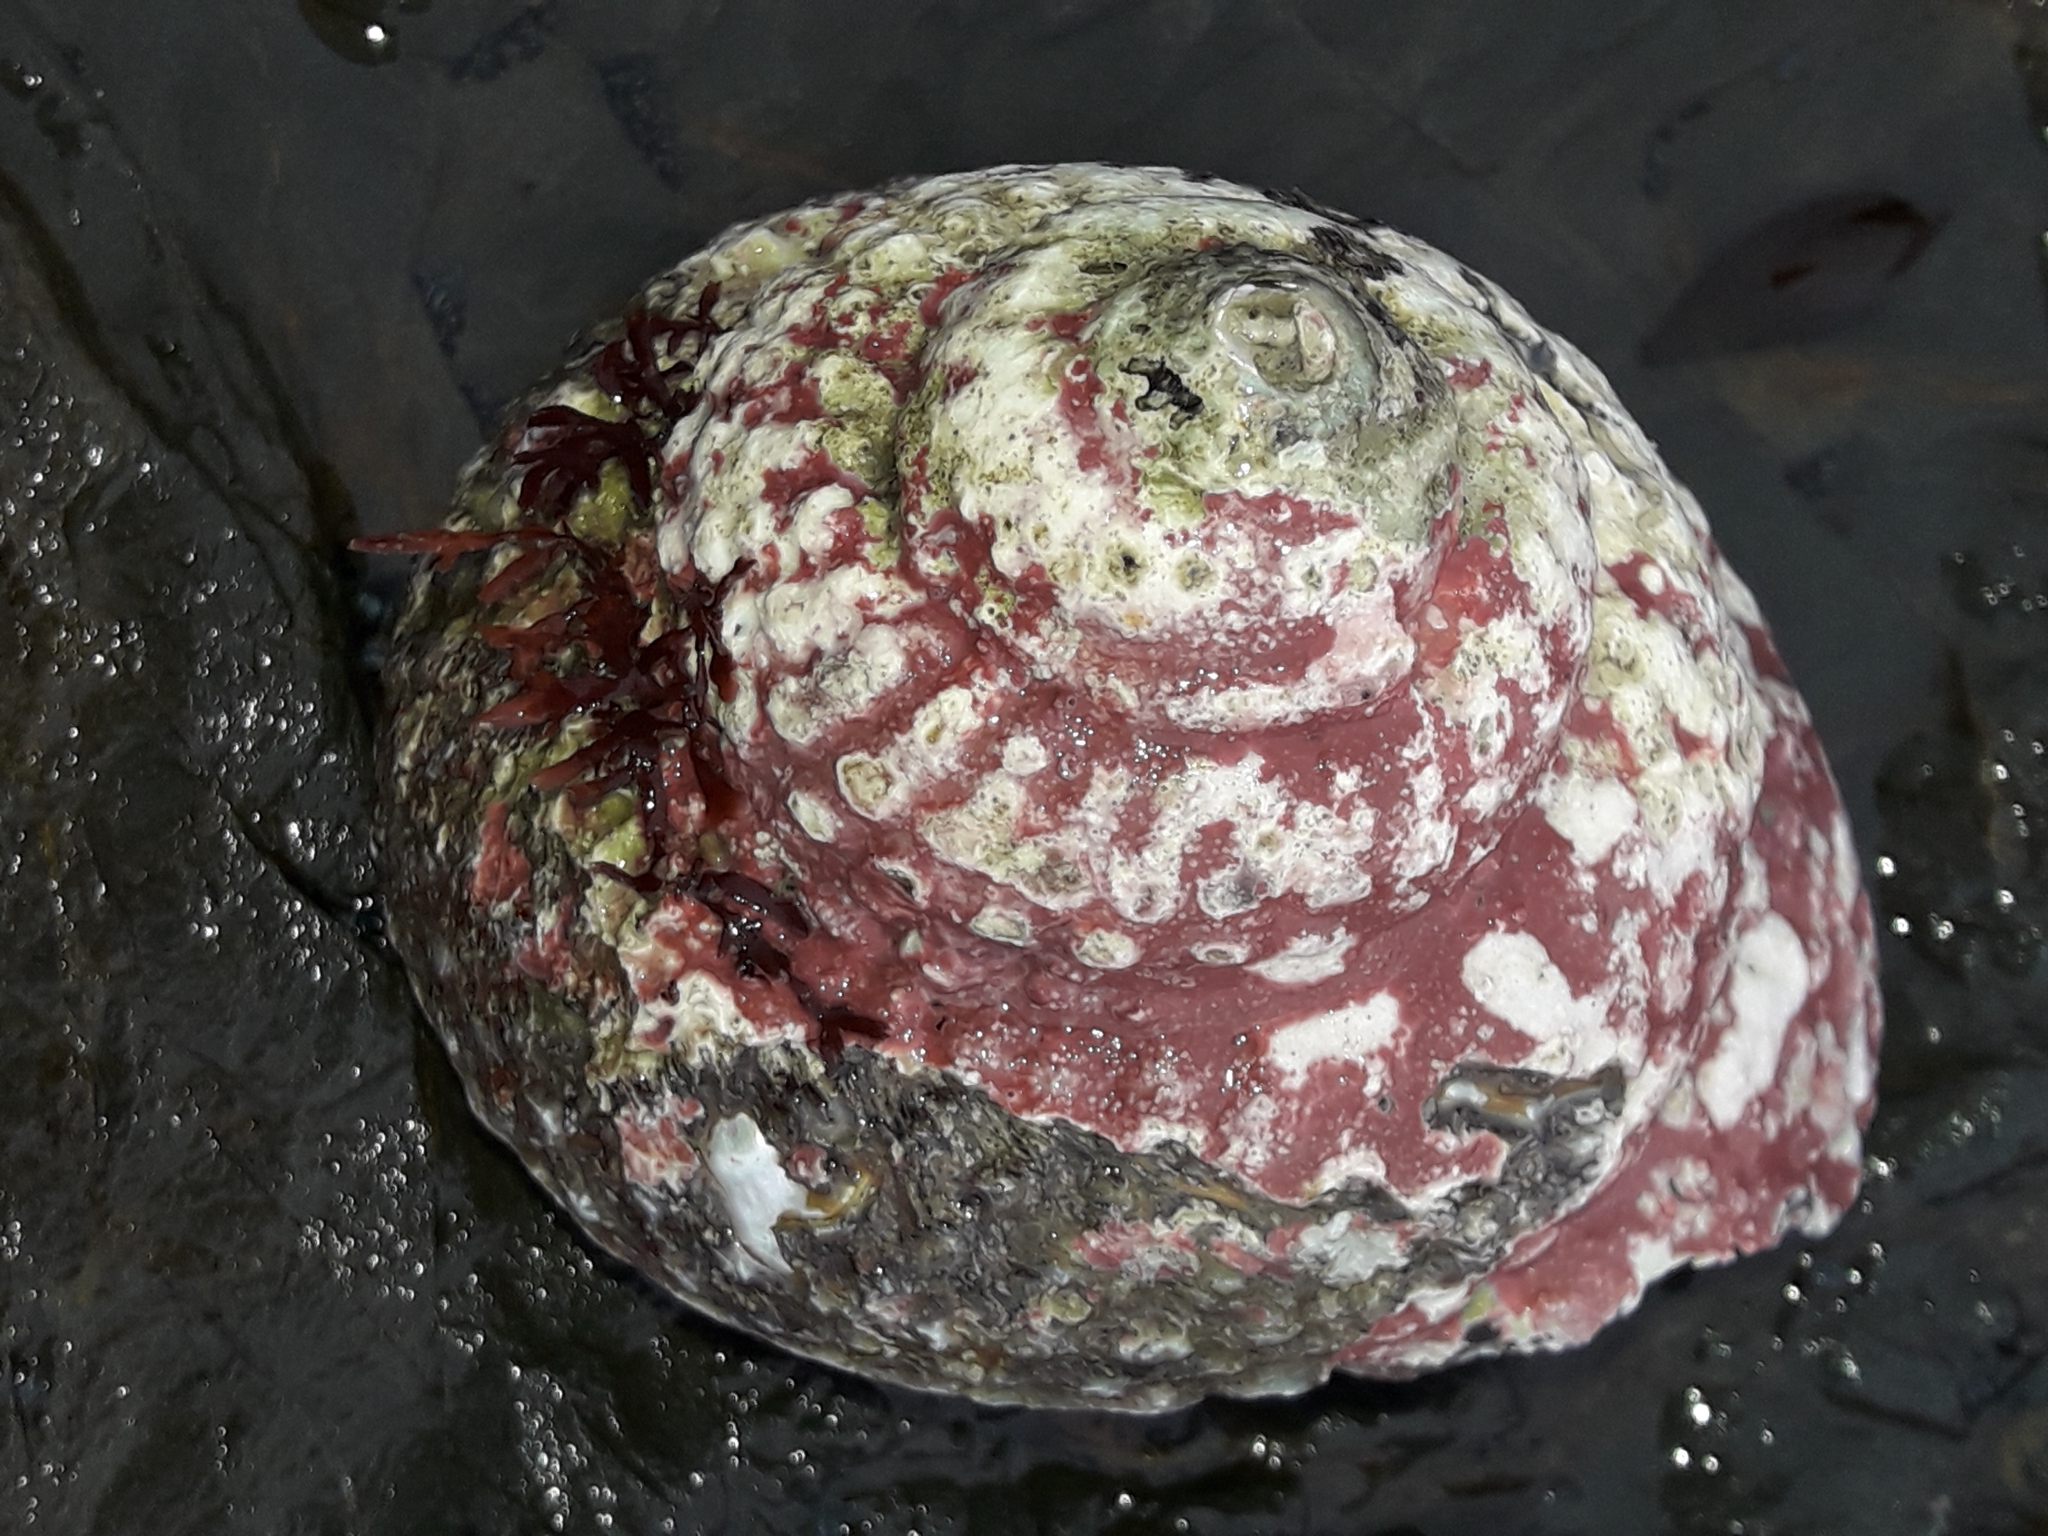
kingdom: Animalia
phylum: Mollusca
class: Gastropoda
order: Trochida
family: Turbinidae
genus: Cookia
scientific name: Cookia sulcata
